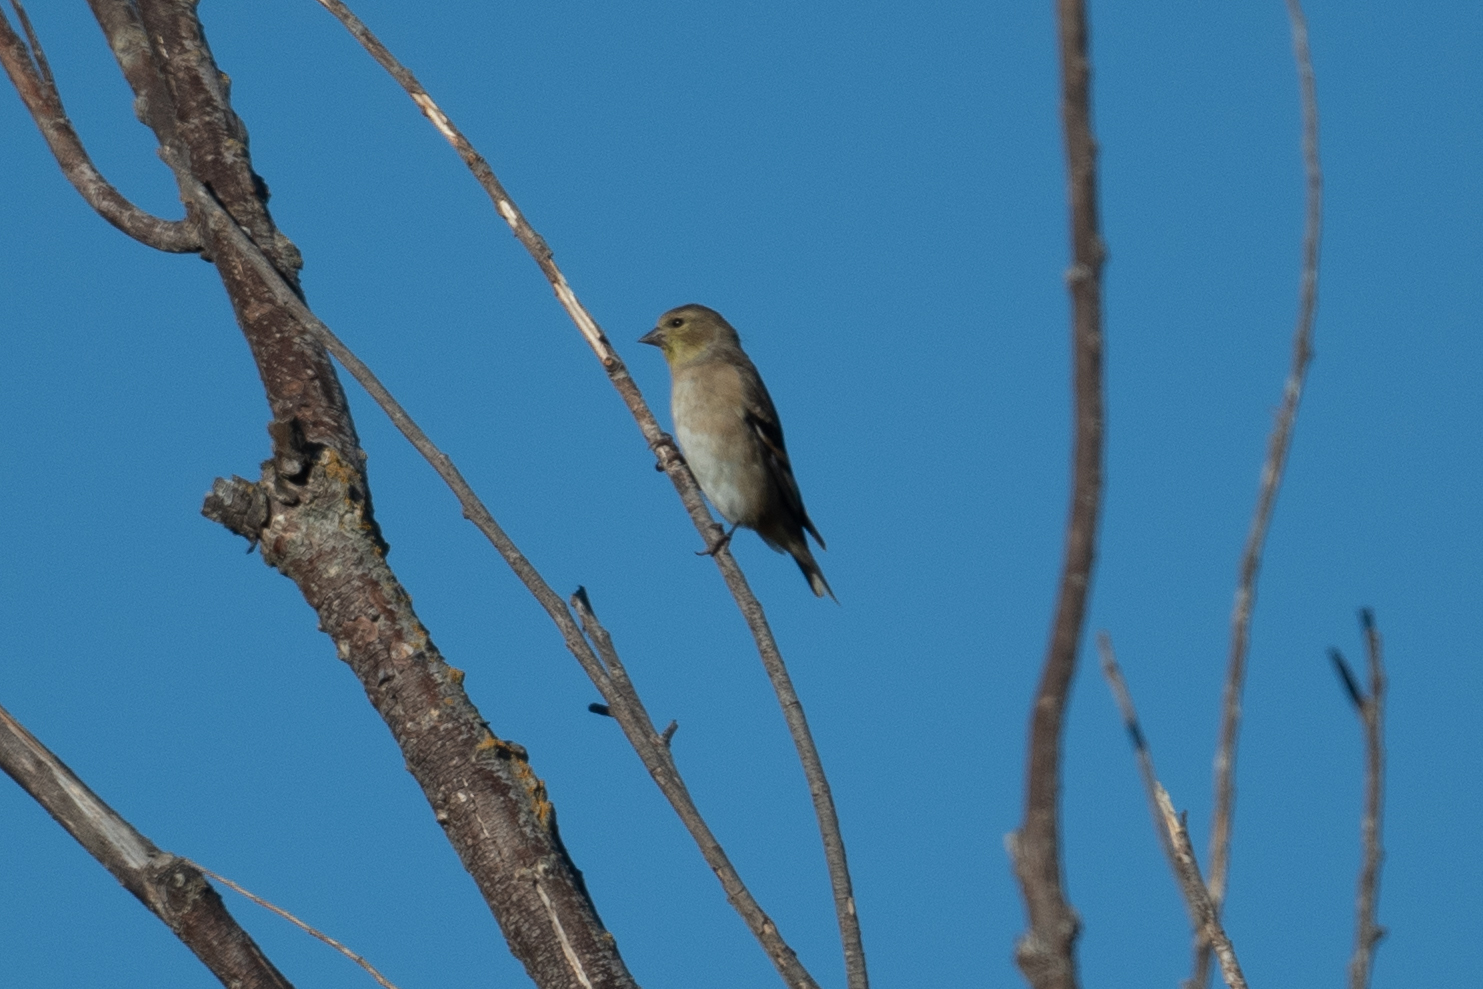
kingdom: Animalia
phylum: Chordata
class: Aves
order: Passeriformes
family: Fringillidae
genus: Spinus
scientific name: Spinus tristis
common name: American goldfinch
